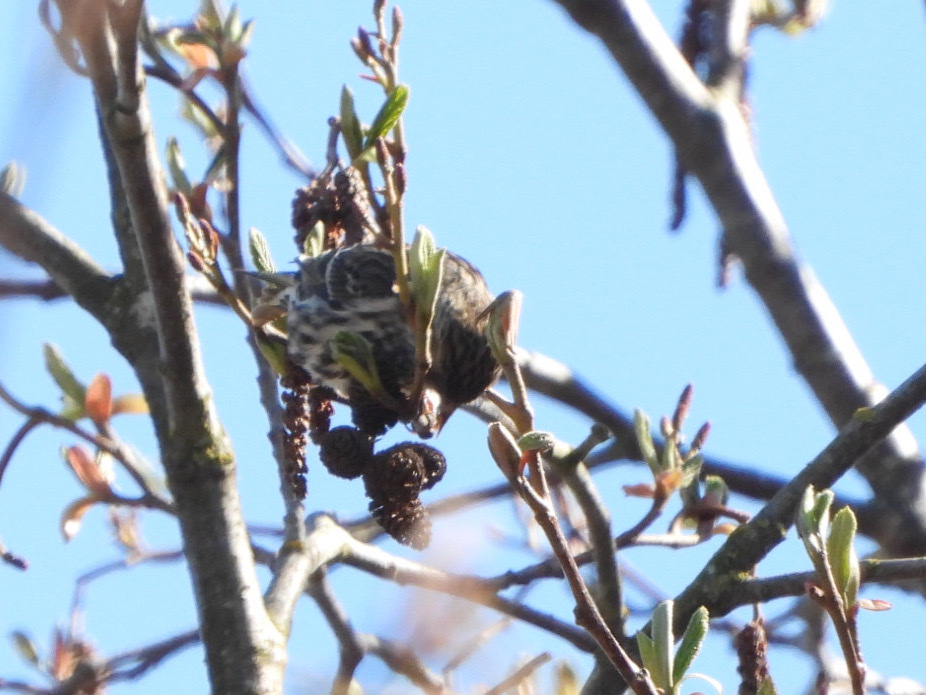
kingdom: Animalia
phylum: Chordata
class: Aves
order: Passeriformes
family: Fringillidae
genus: Spinus
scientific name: Spinus pinus
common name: Pine siskin
